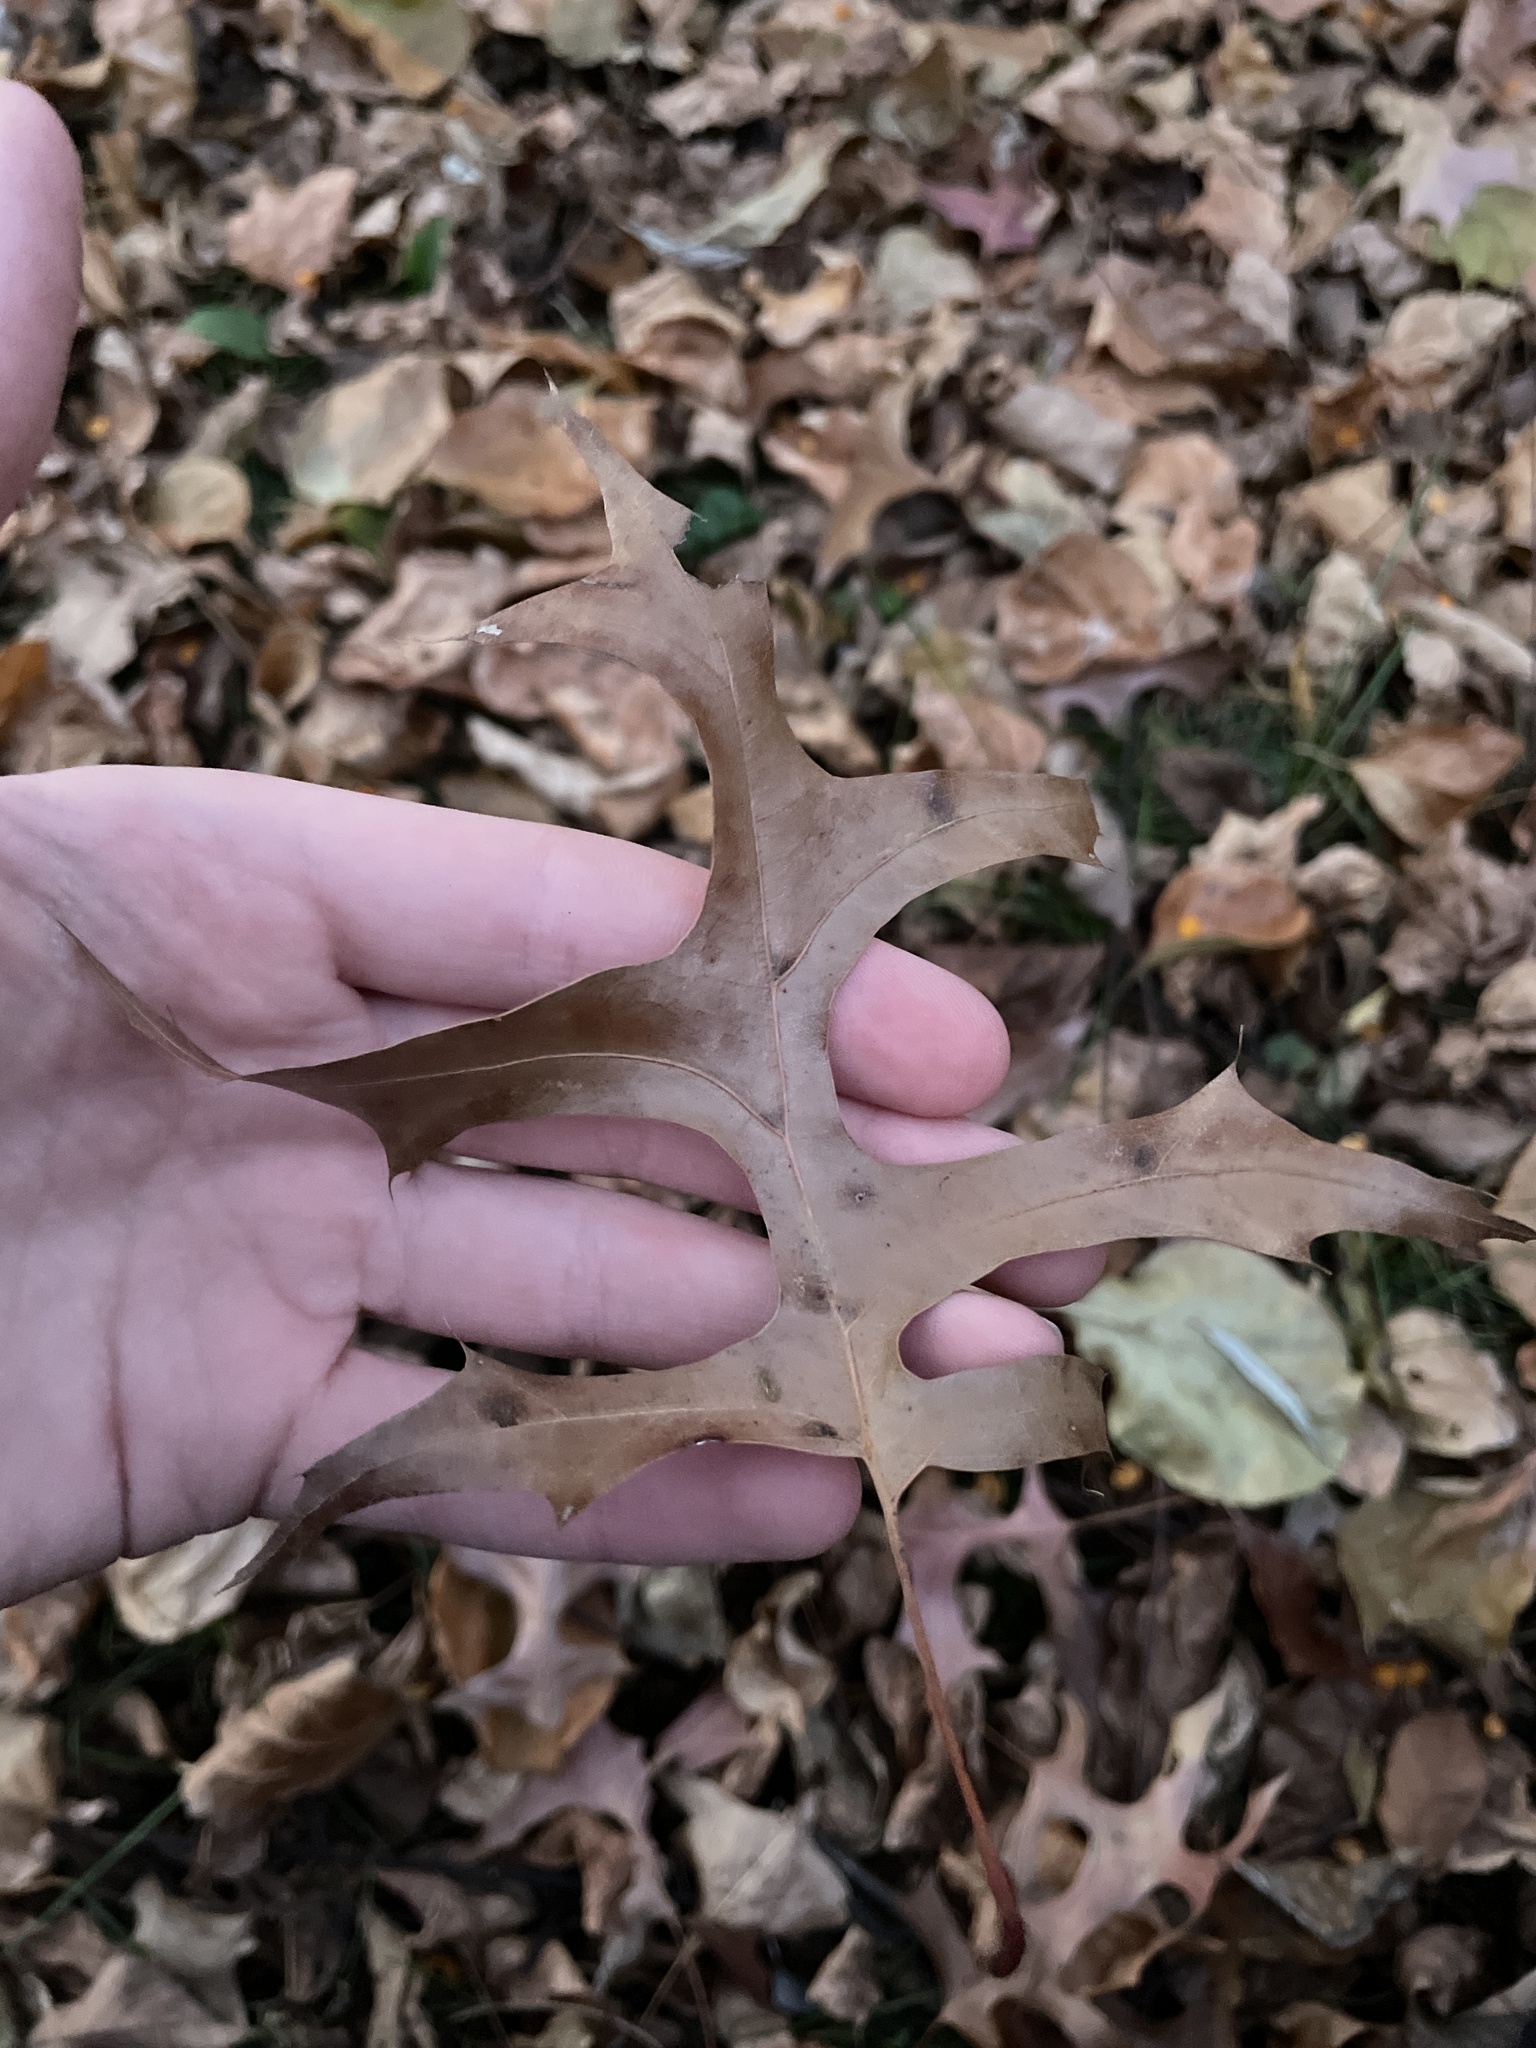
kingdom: Plantae
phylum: Tracheophyta
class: Magnoliopsida
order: Fagales
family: Fagaceae
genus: Quercus
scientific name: Quercus palustris
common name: Pin oak
